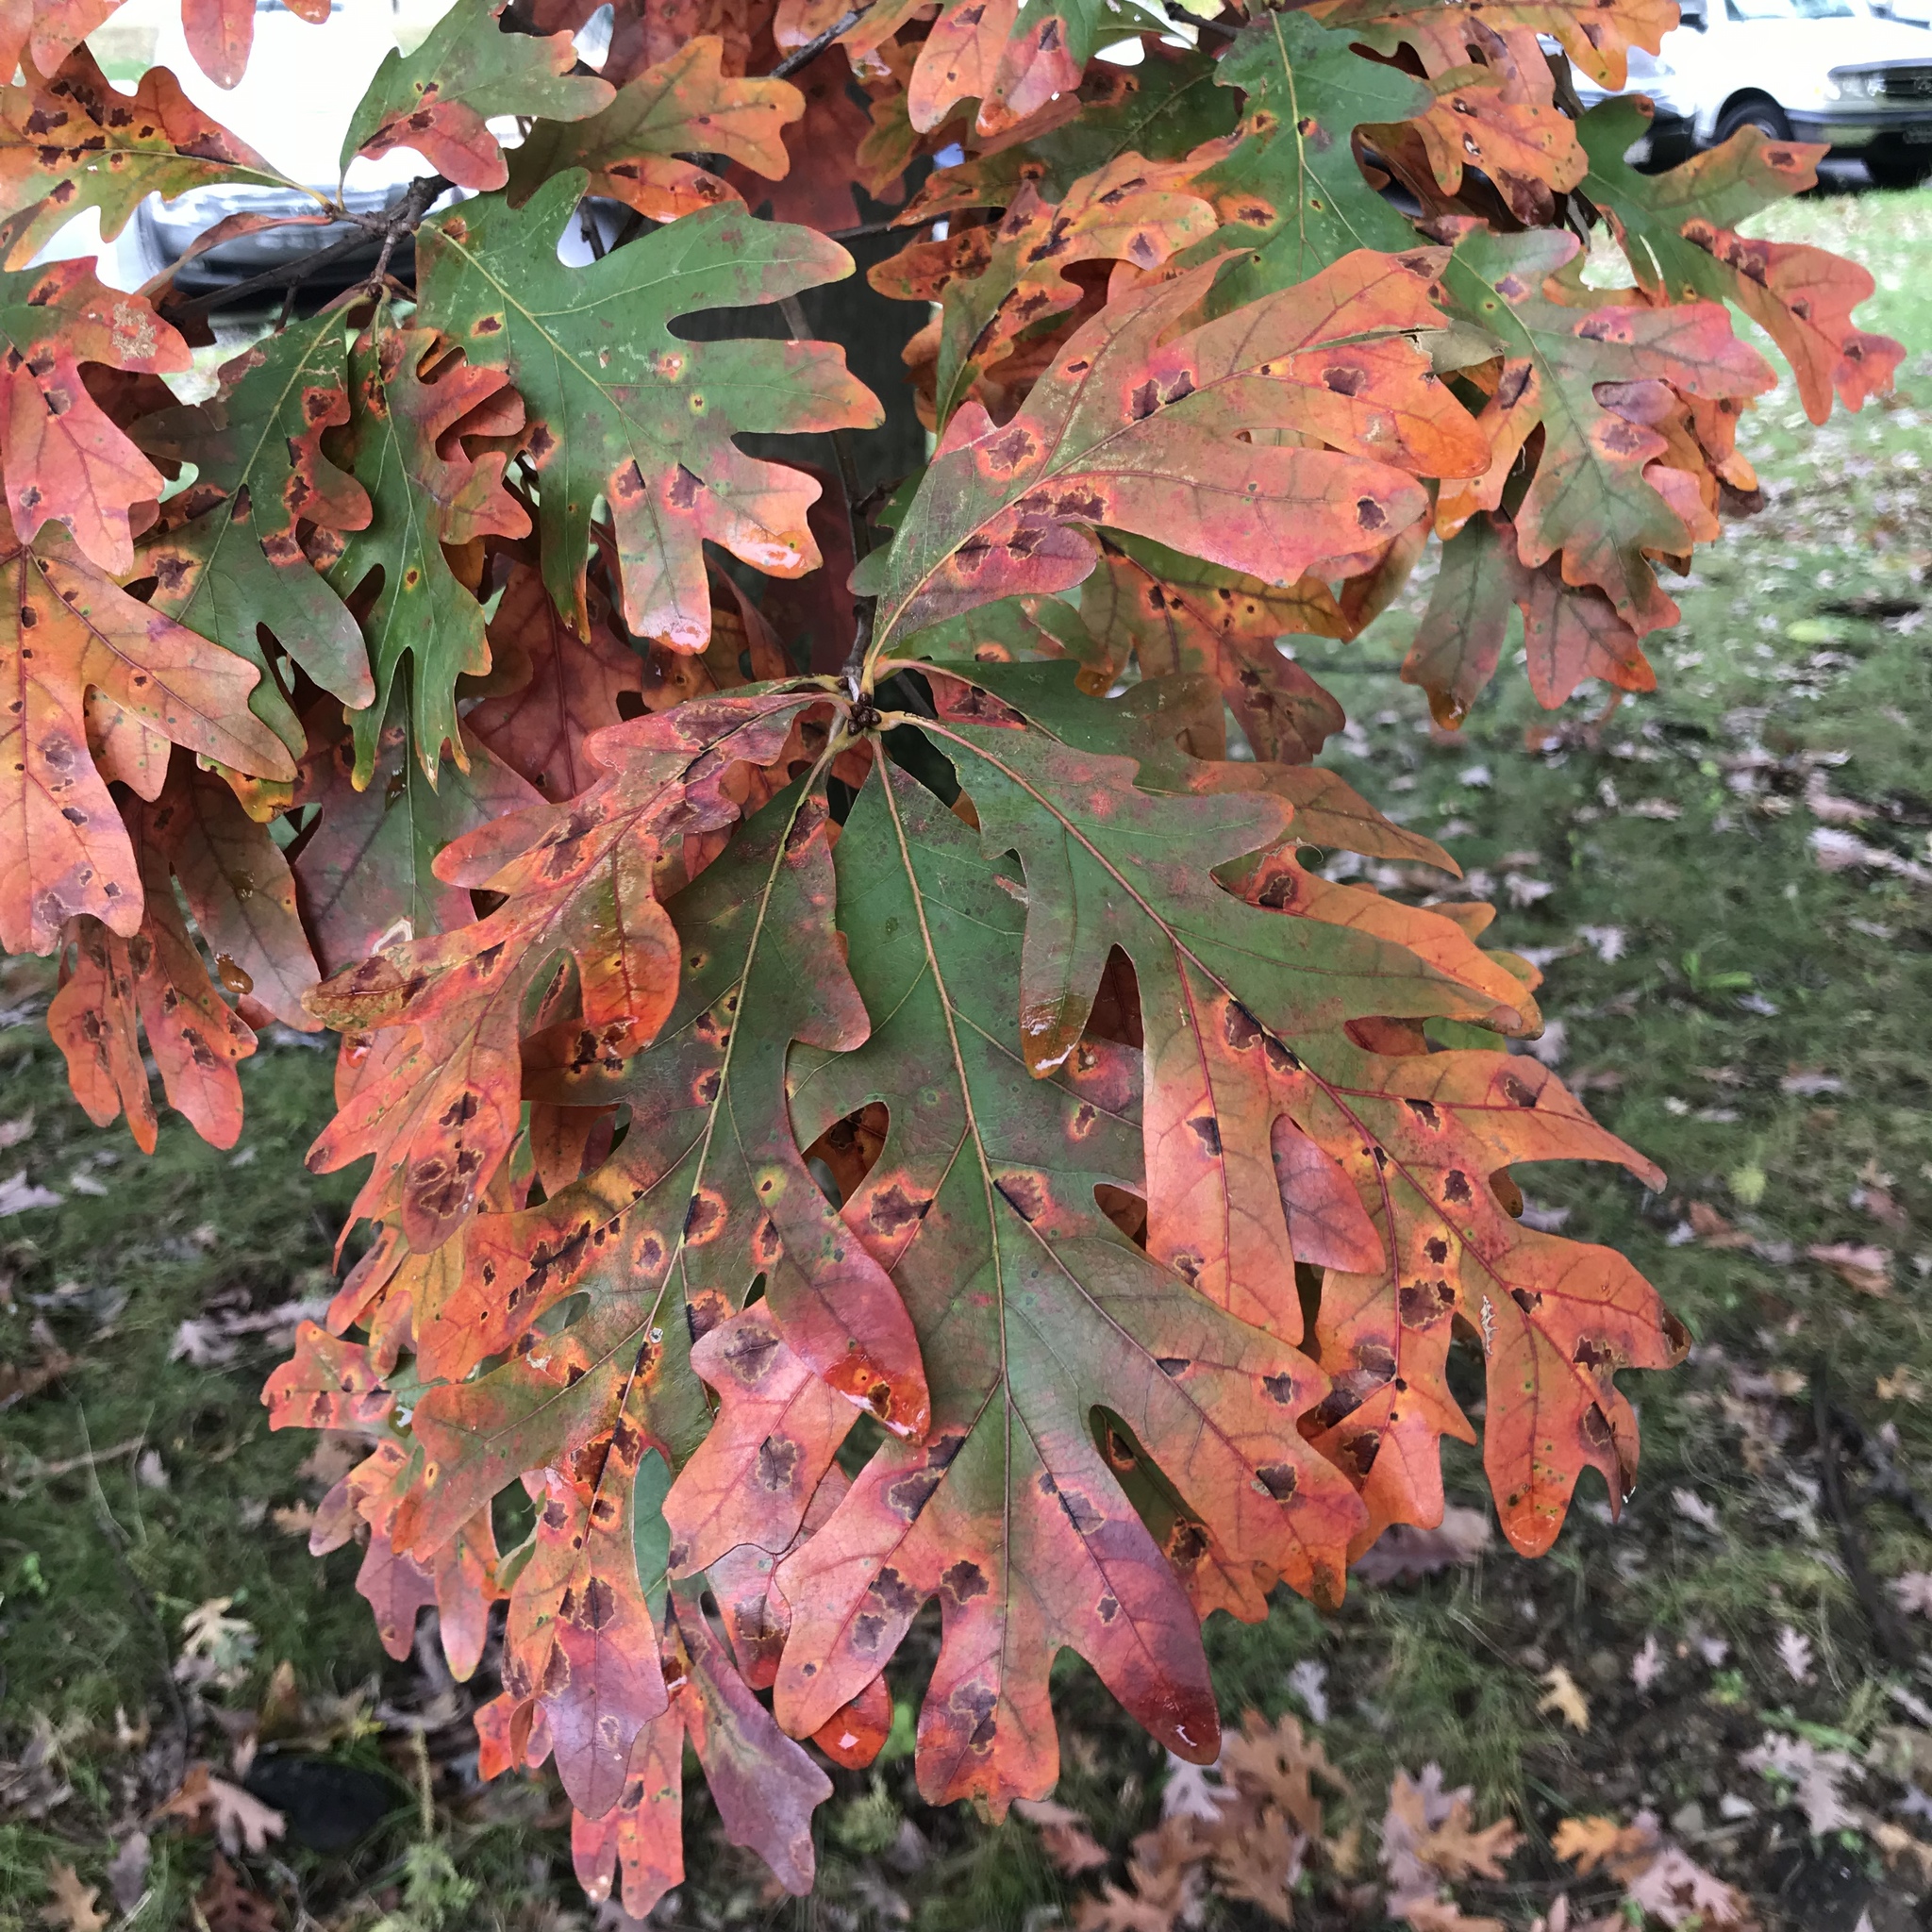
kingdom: Plantae
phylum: Tracheophyta
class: Magnoliopsida
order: Fagales
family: Fagaceae
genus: Quercus
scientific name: Quercus alba
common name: White oak
